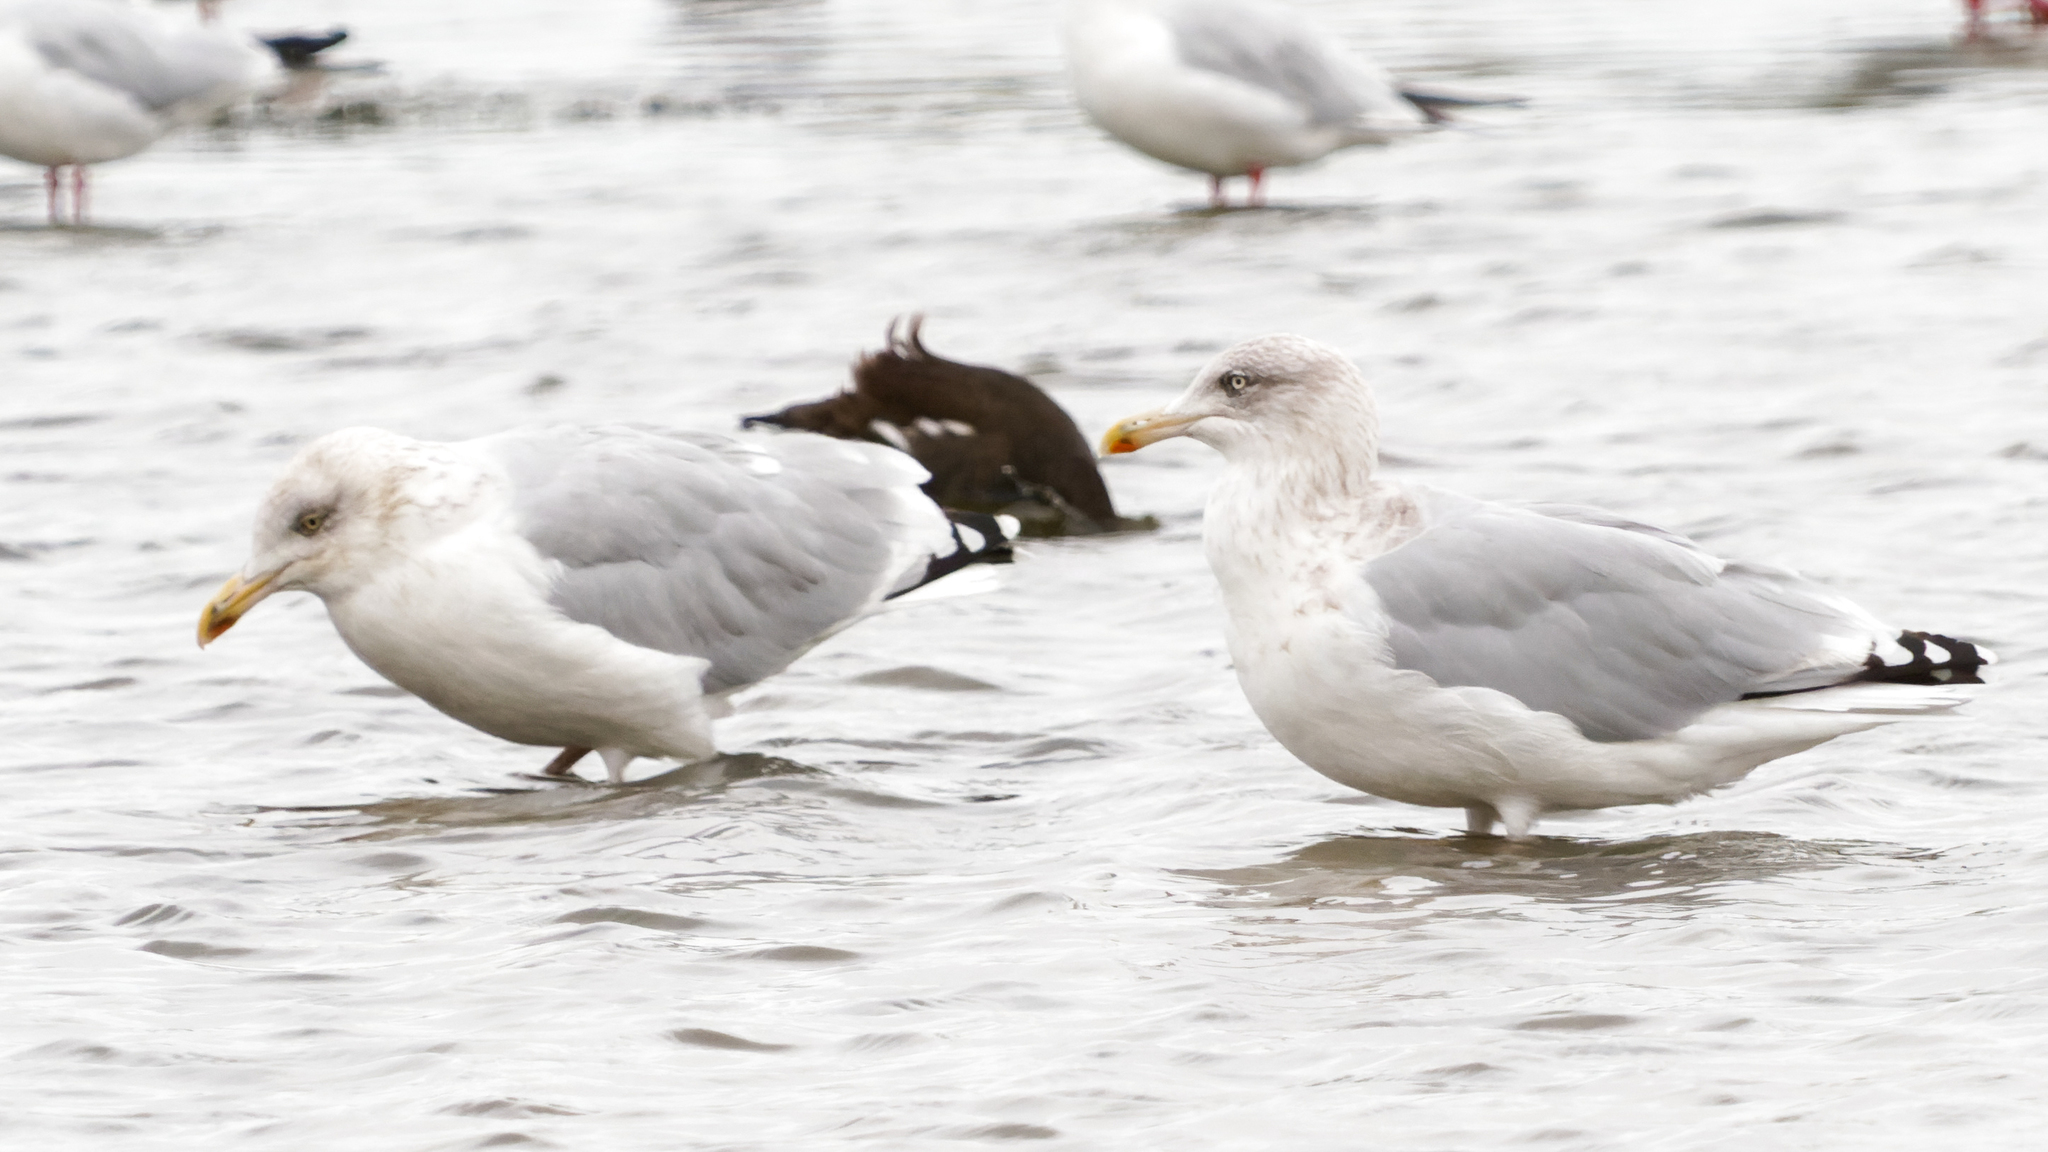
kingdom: Animalia
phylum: Chordata
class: Aves
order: Charadriiformes
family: Laridae
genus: Larus
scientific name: Larus argentatus
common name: Herring gull
